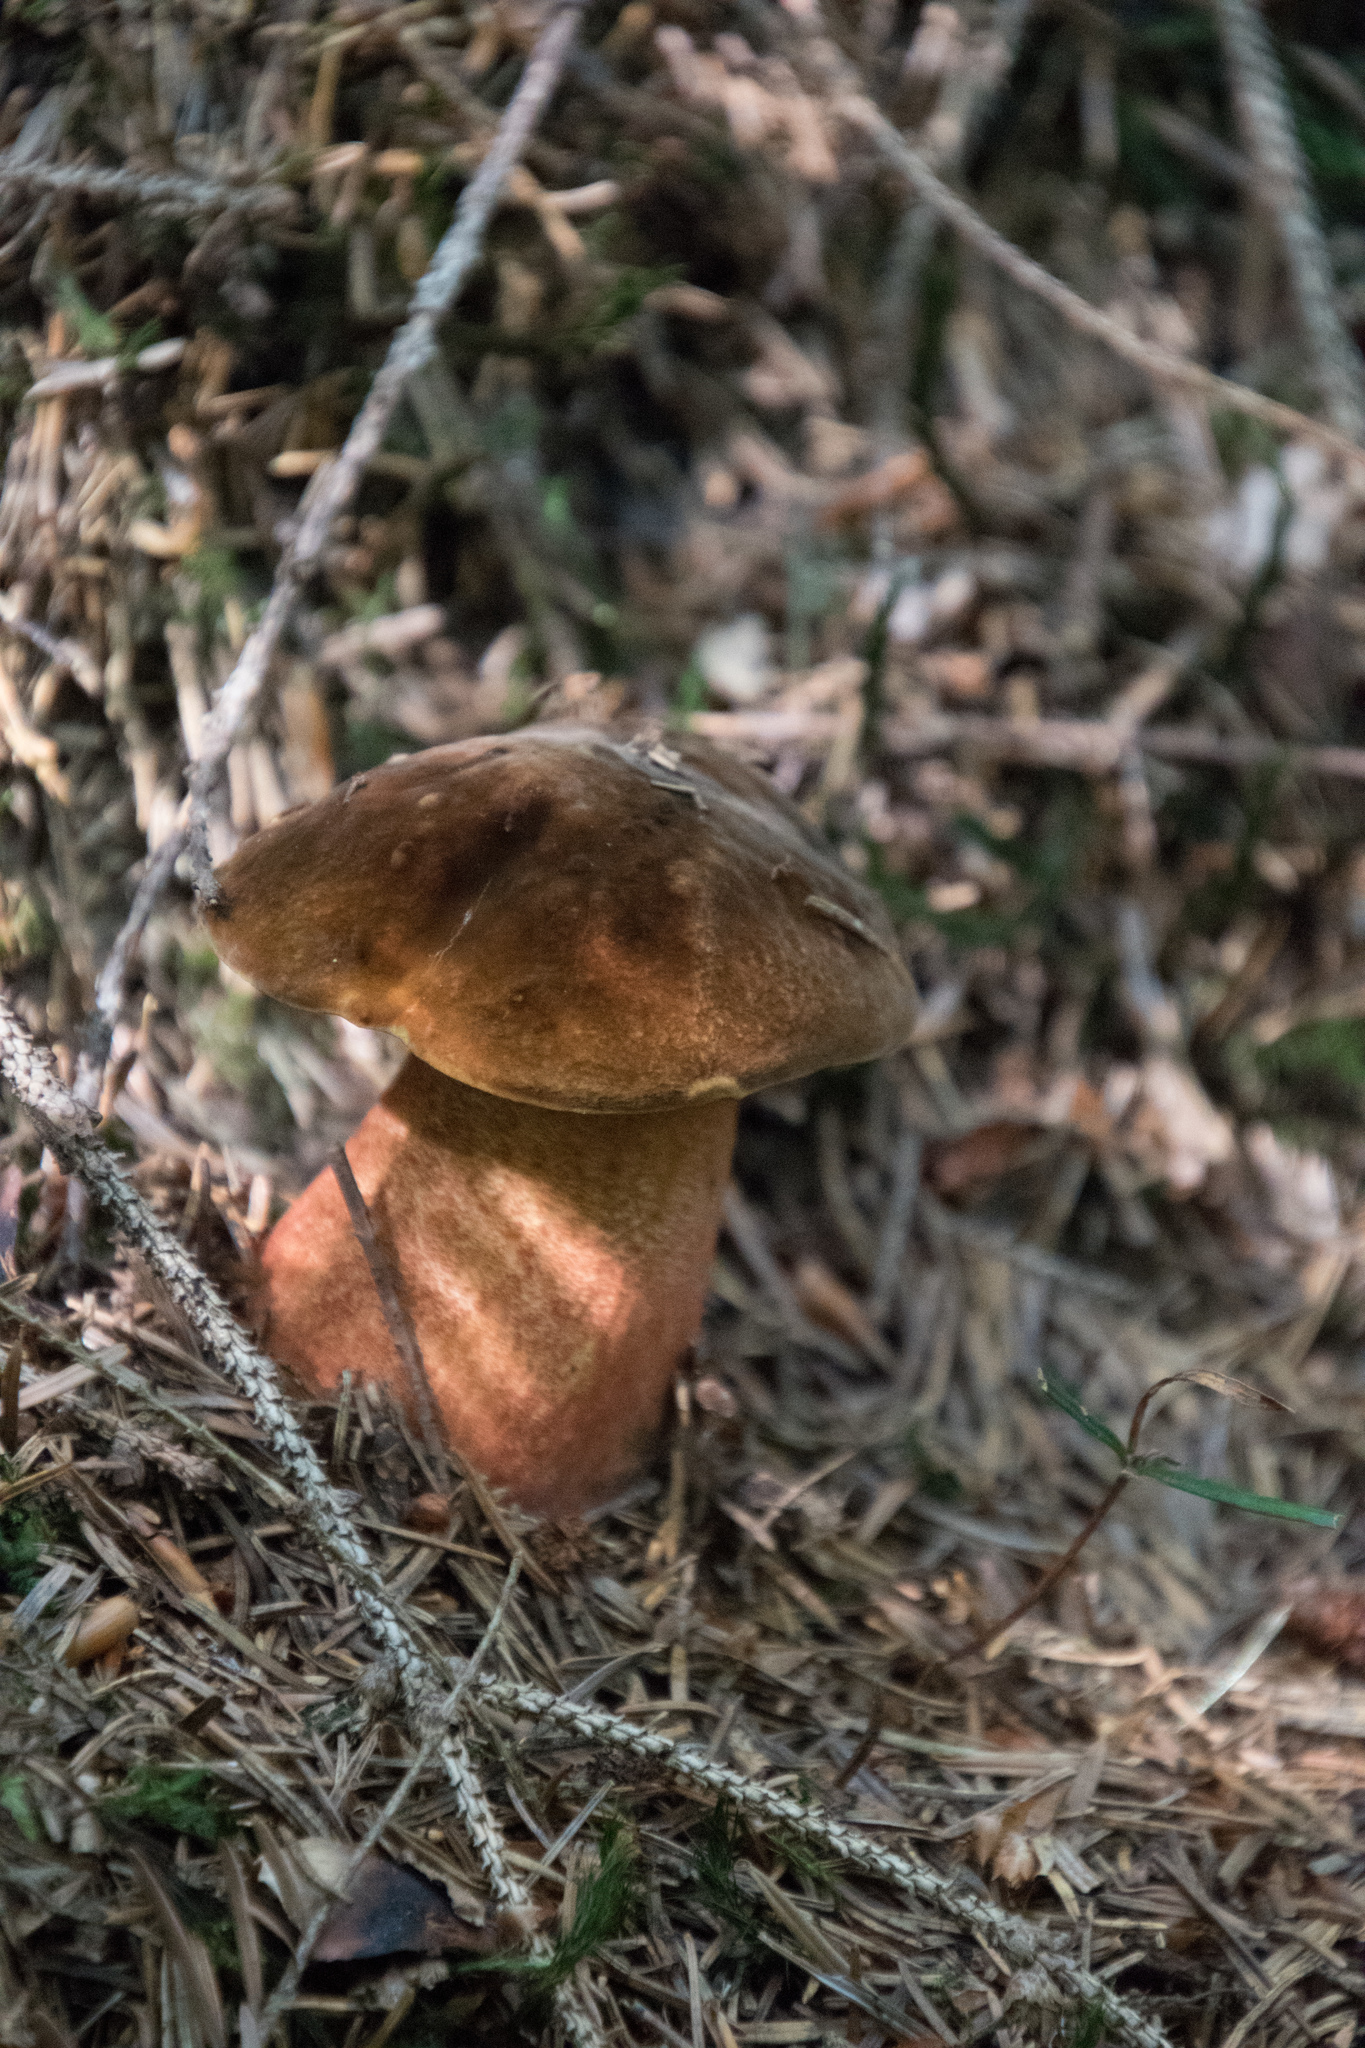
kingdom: Fungi
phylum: Basidiomycota
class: Agaricomycetes
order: Boletales
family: Boletaceae
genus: Neoboletus
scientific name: Neoboletus luridiformis
